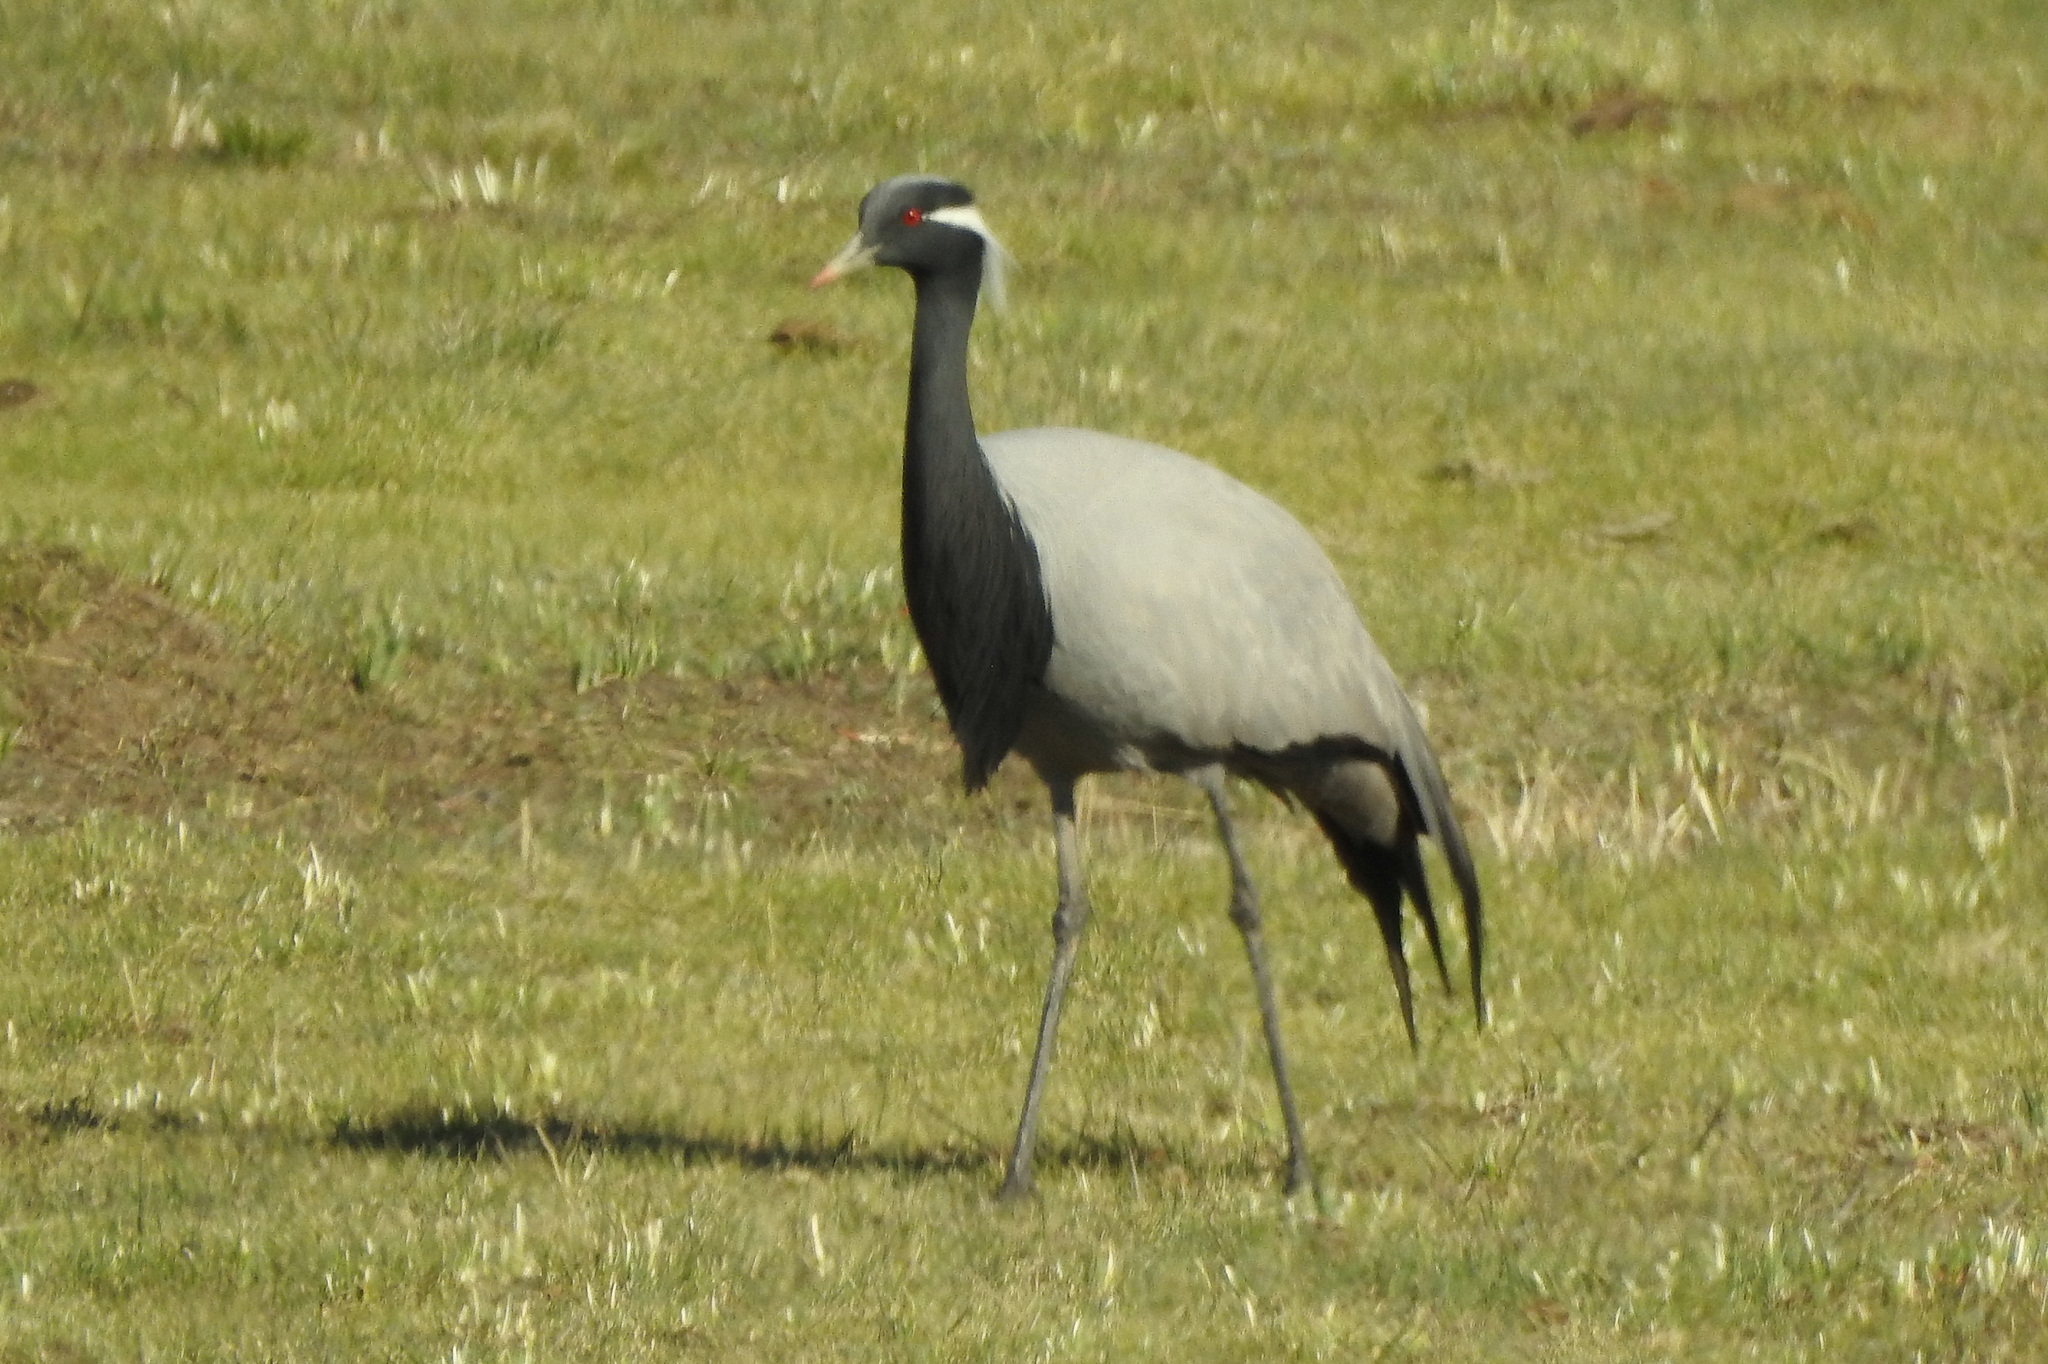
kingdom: Animalia
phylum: Chordata
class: Aves
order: Gruiformes
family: Gruidae
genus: Anthropoides
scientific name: Anthropoides virgo
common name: Demoiselle crane
